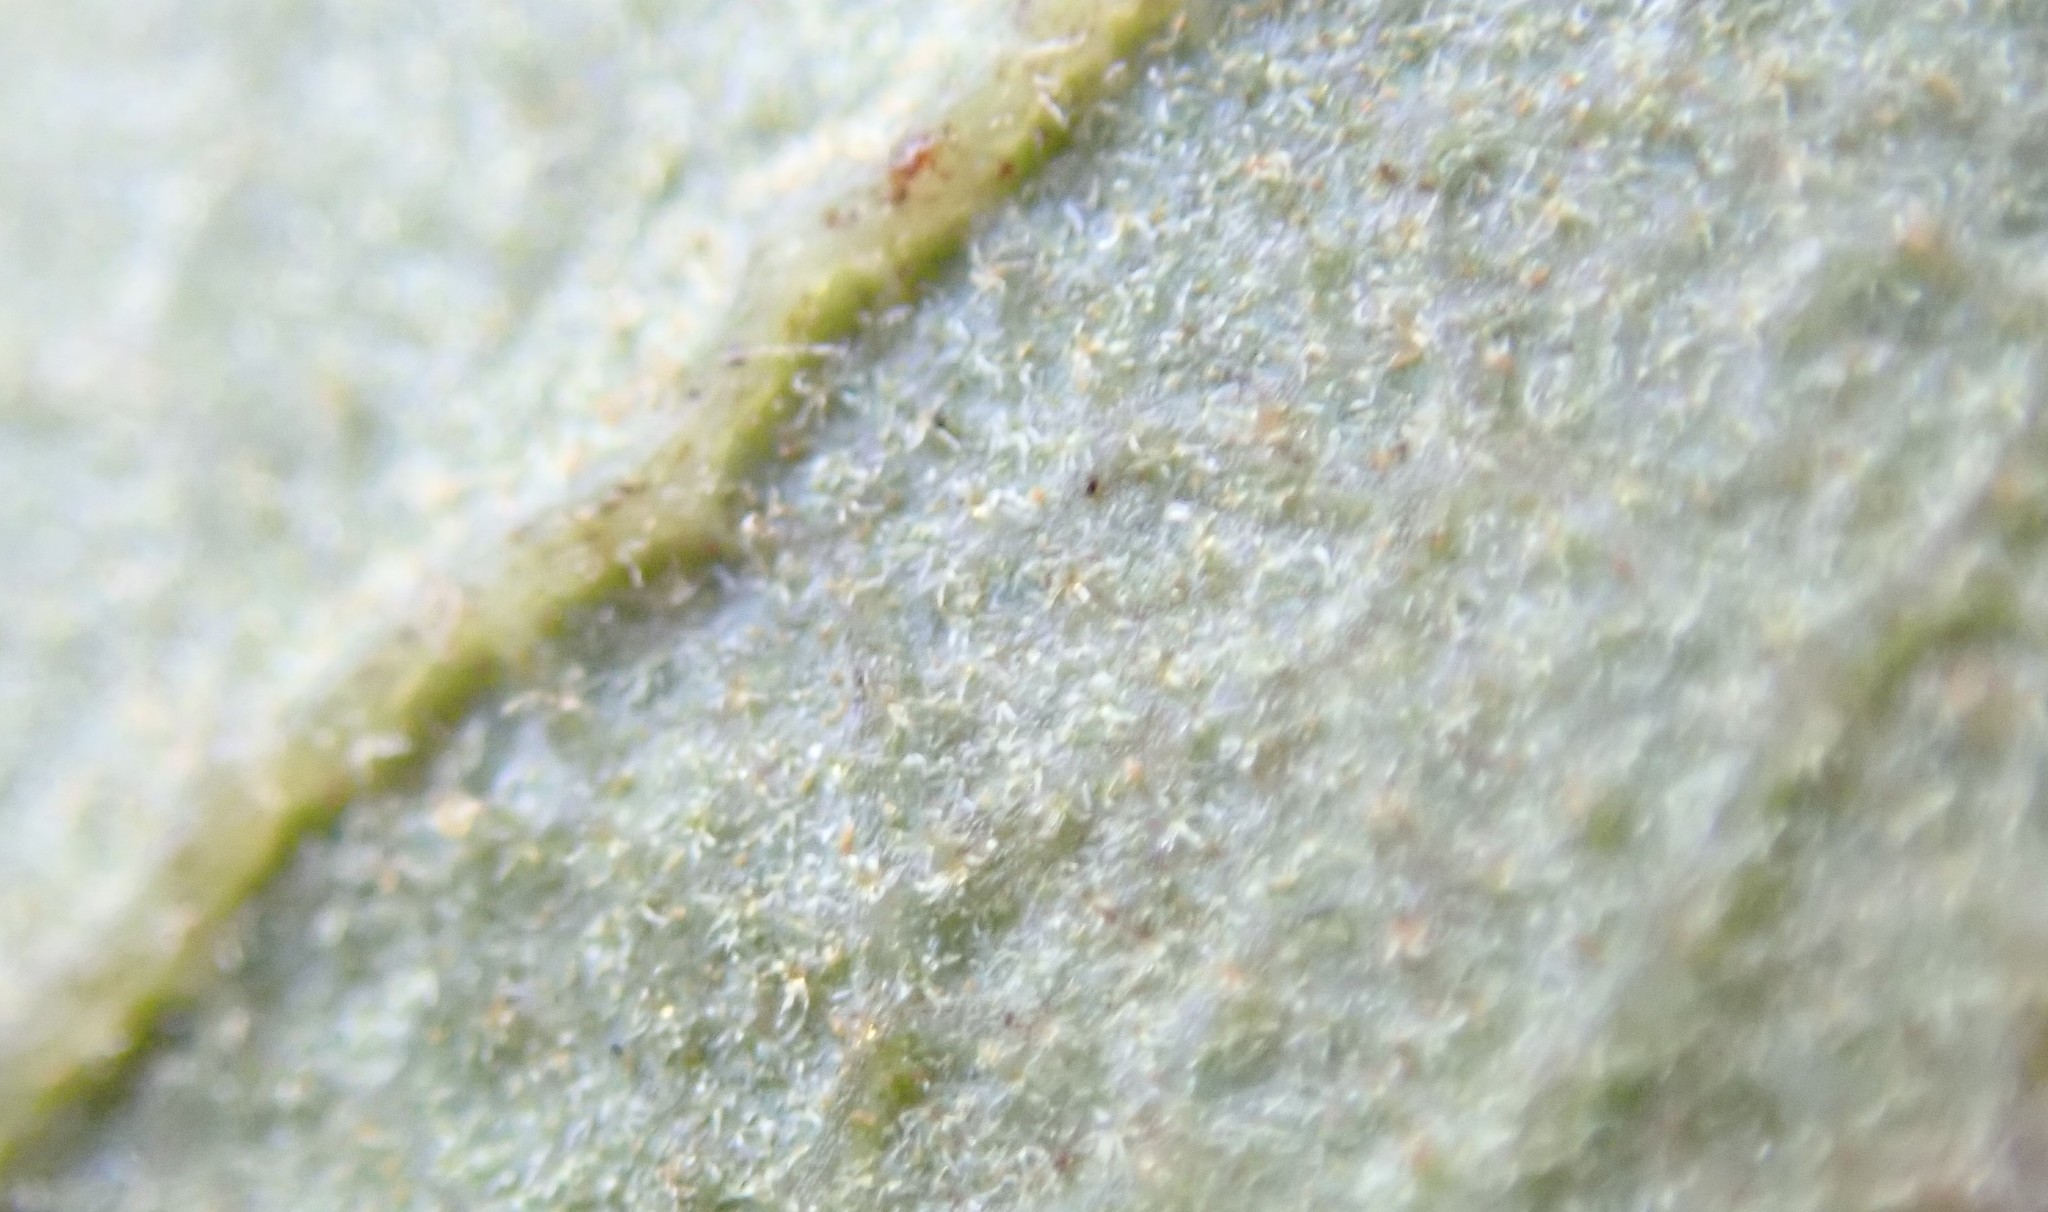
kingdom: Plantae
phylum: Tracheophyta
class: Magnoliopsida
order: Fagales
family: Fagaceae
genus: Quercus
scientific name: Quercus berberidifolia
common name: California scrub oak
